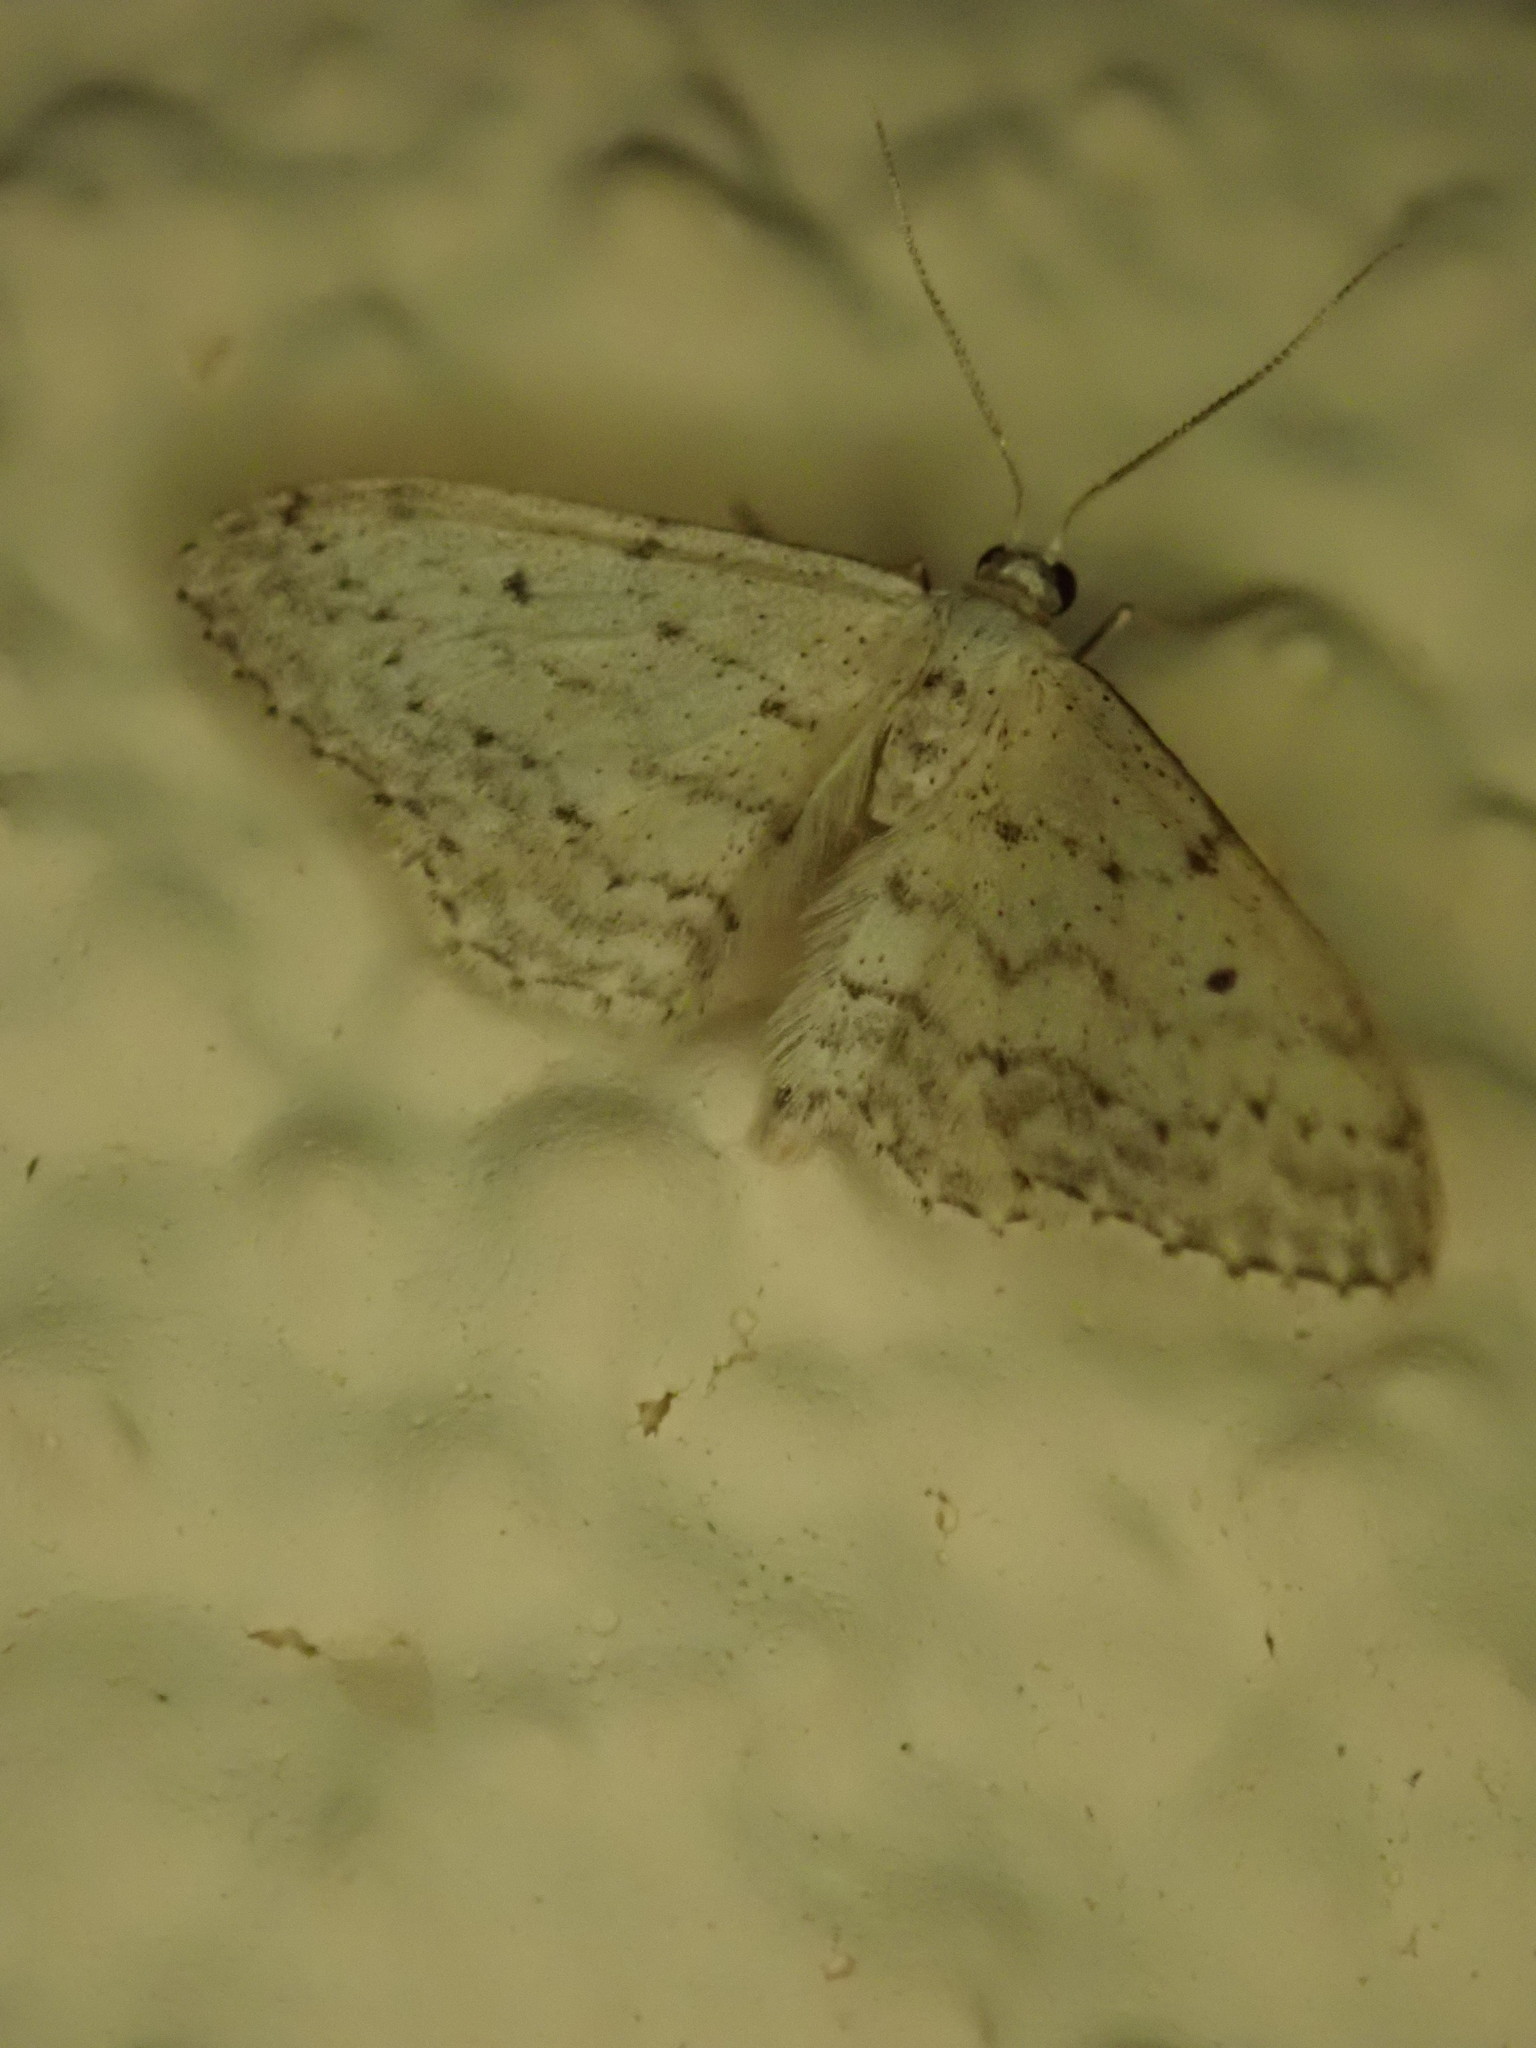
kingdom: Animalia
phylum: Arthropoda
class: Insecta
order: Lepidoptera
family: Geometridae
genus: Idaea
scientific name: Idaea seriata
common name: Small dusty wave
